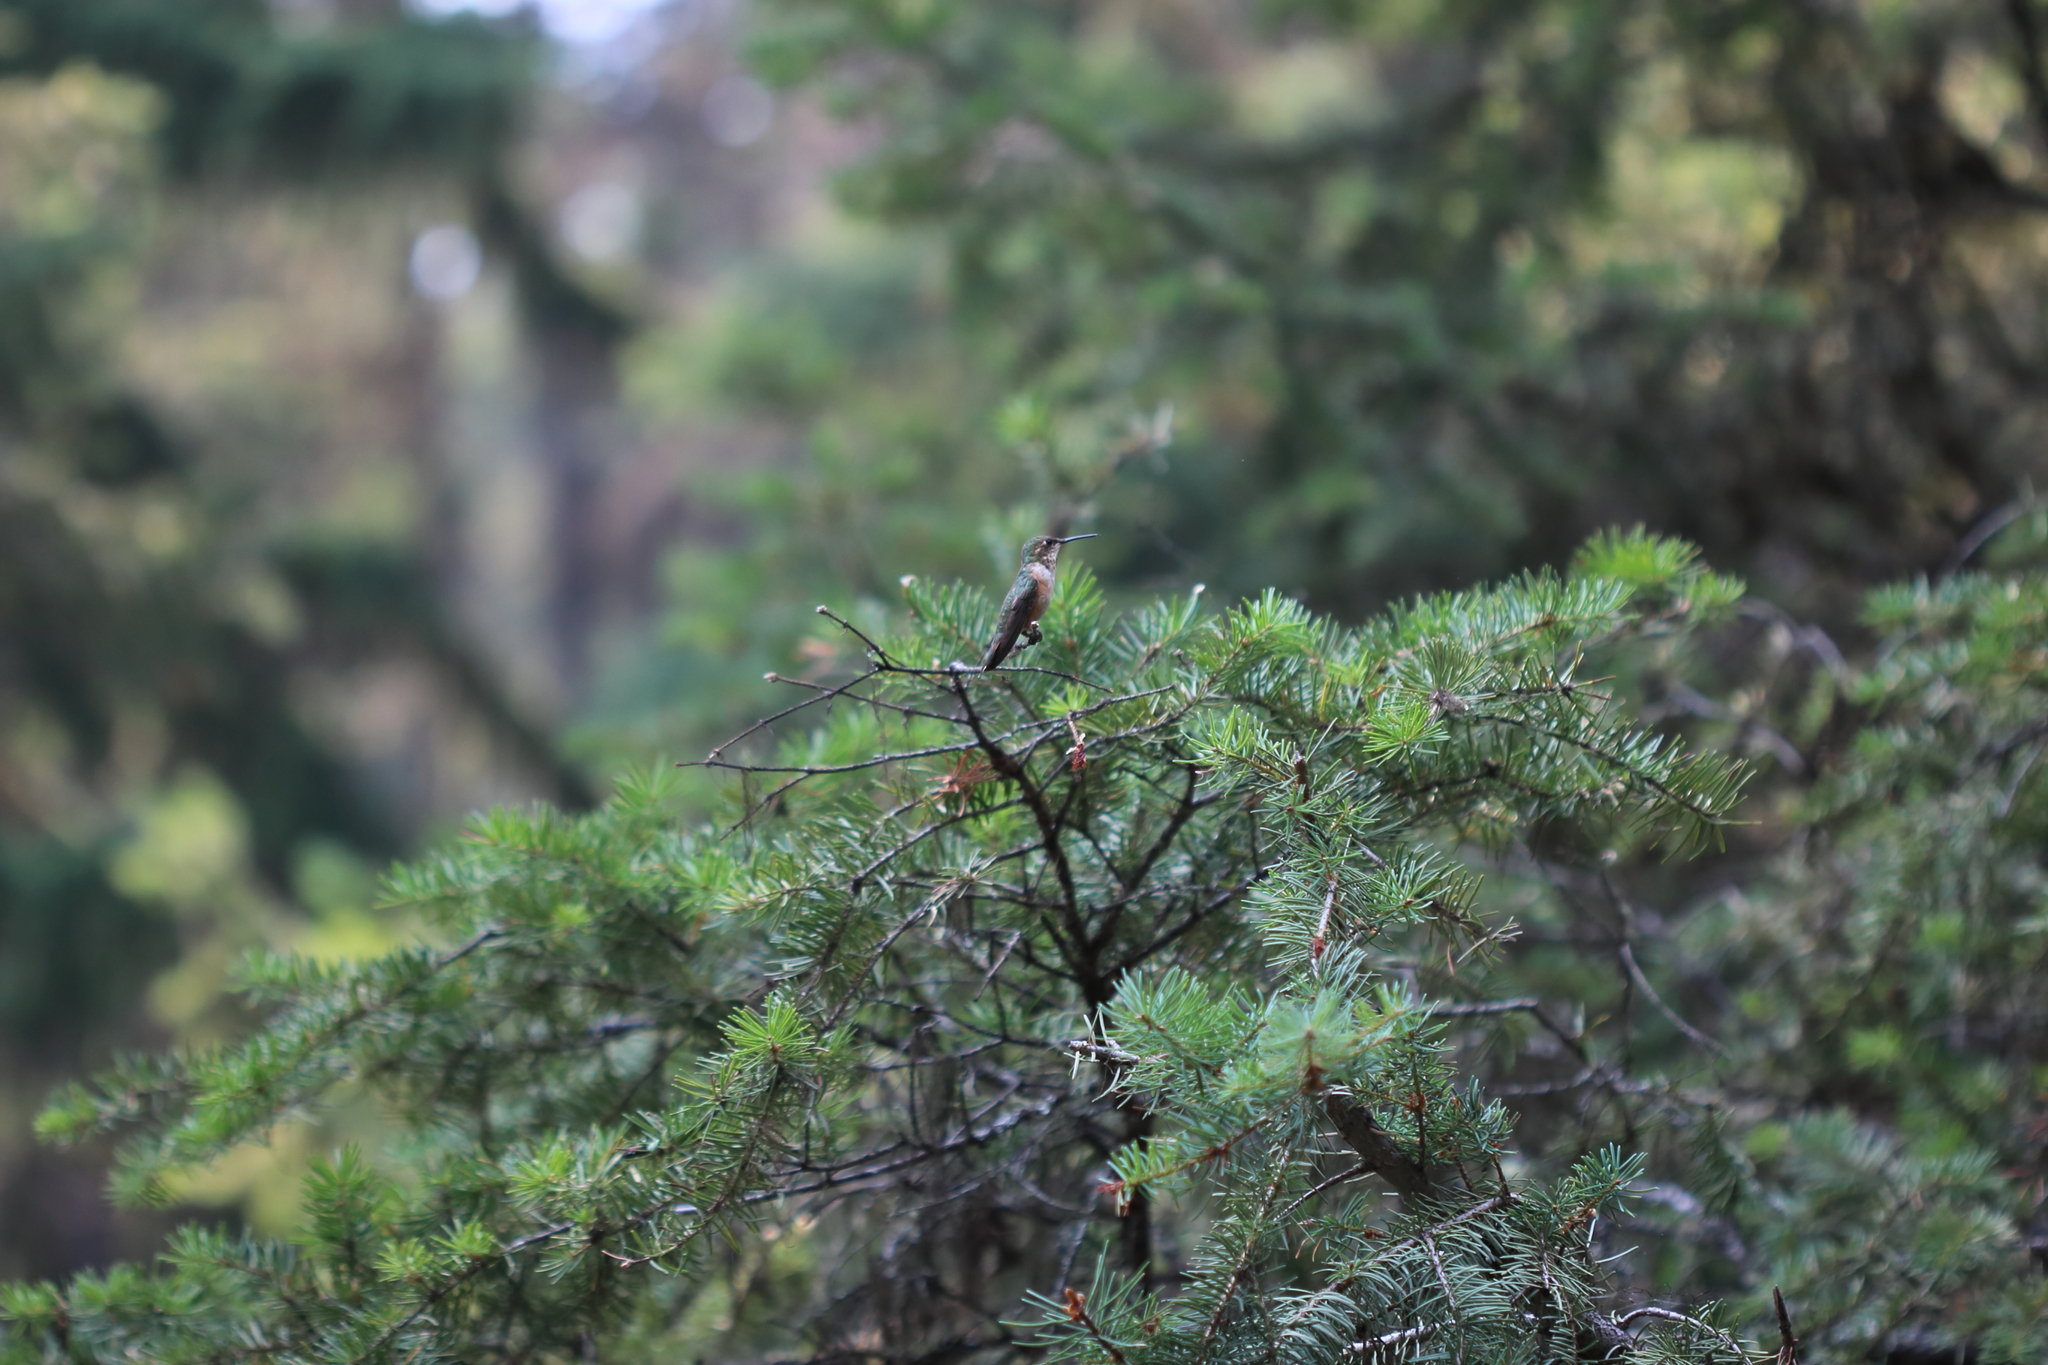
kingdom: Animalia
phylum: Chordata
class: Aves
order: Apodiformes
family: Trochilidae
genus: Selasphorus
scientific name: Selasphorus rufus
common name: Rufous hummingbird
